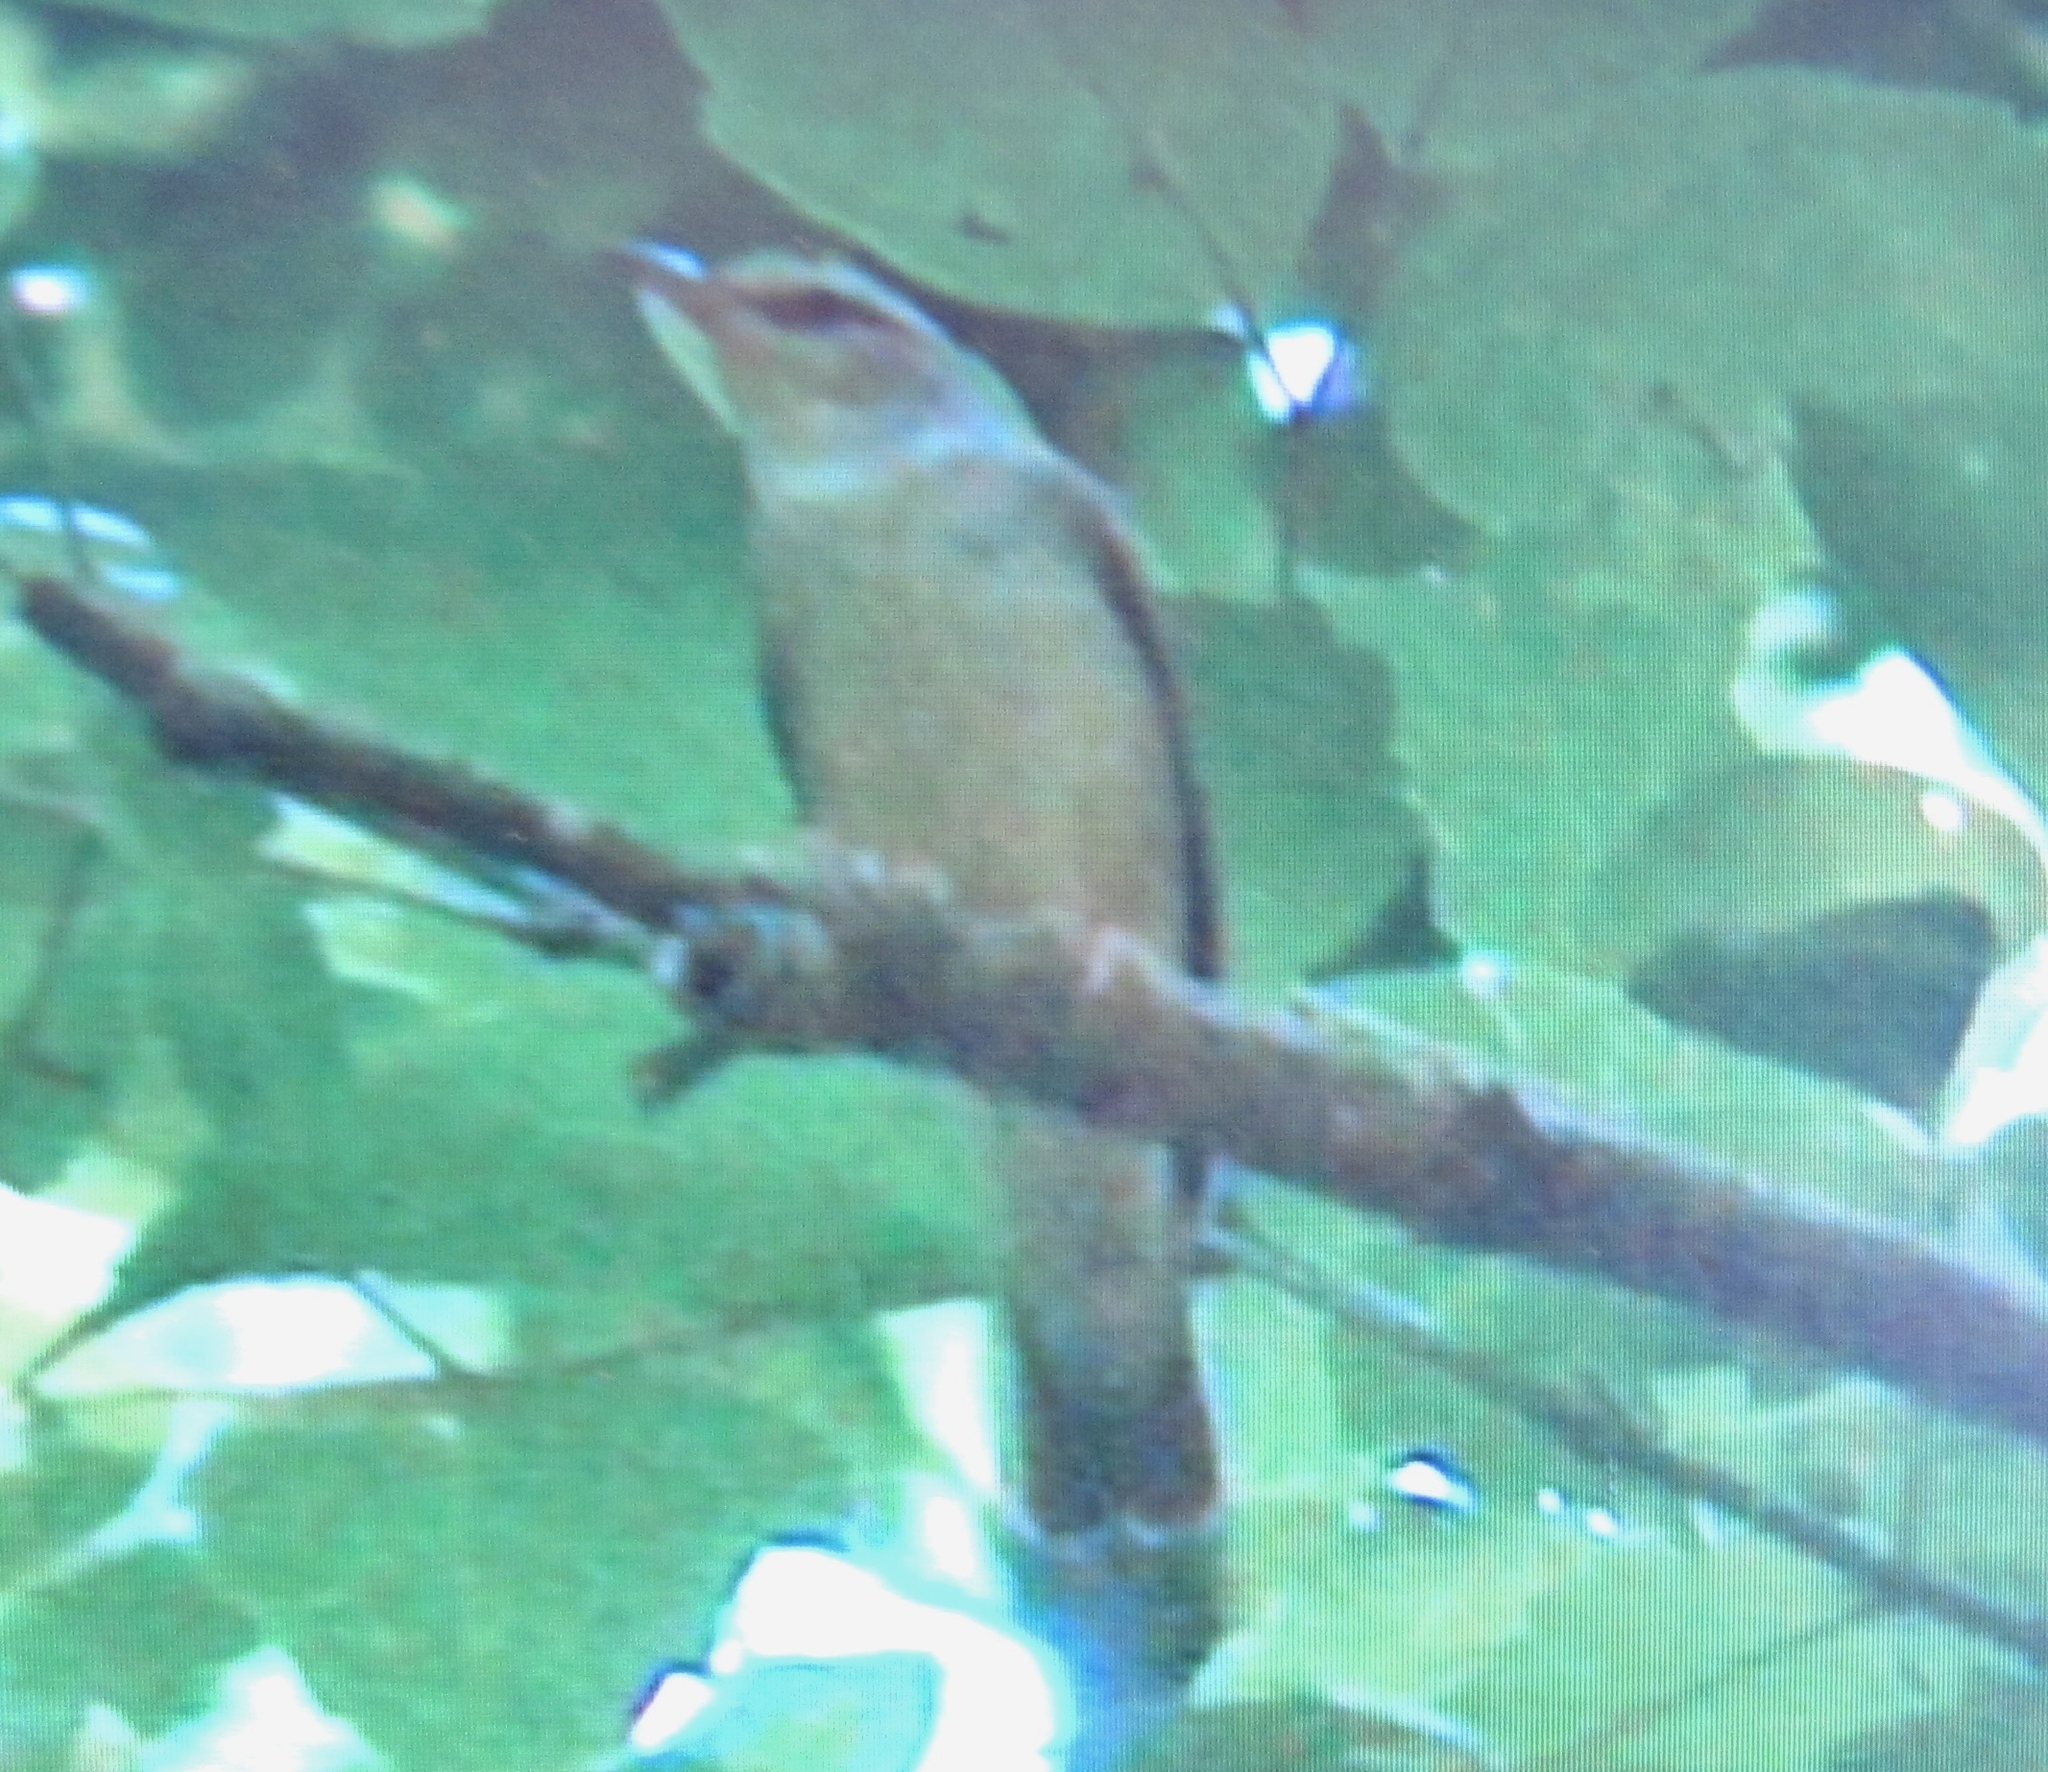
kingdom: Animalia
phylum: Chordata
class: Aves
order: Passeriformes
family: Parulidae
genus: Limnothlypis
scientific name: Limnothlypis swainsonii
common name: Swainson's warbler
